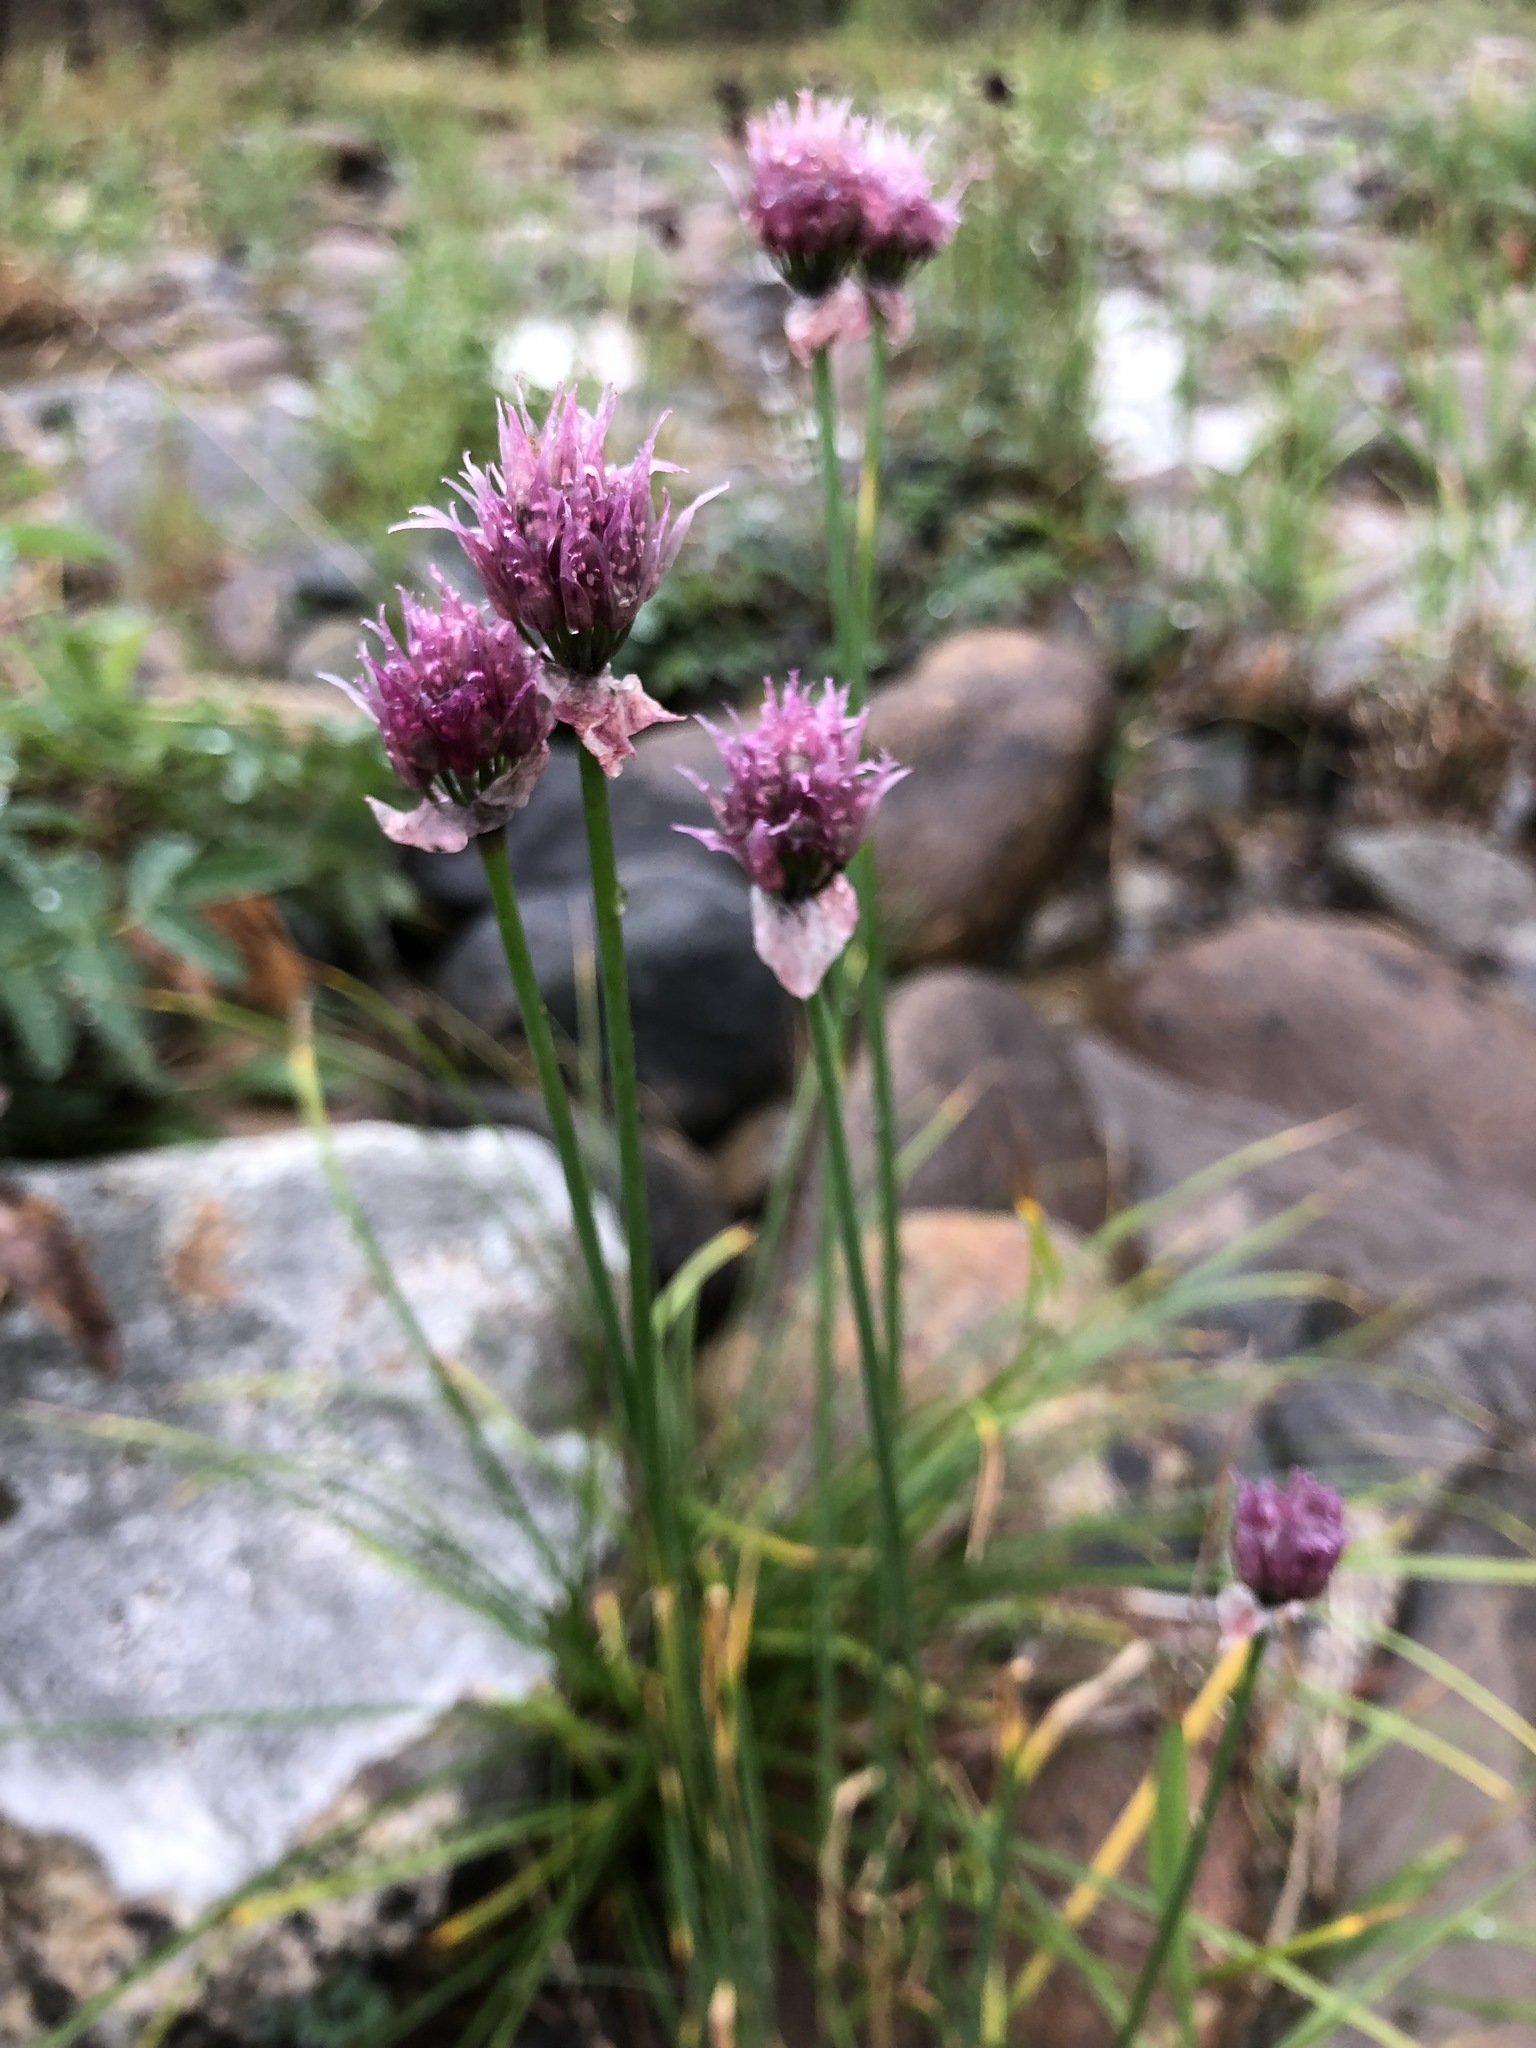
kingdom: Plantae
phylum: Tracheophyta
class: Liliopsida
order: Asparagales
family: Amaryllidaceae
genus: Allium
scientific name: Allium schoenoprasum
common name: Chives
